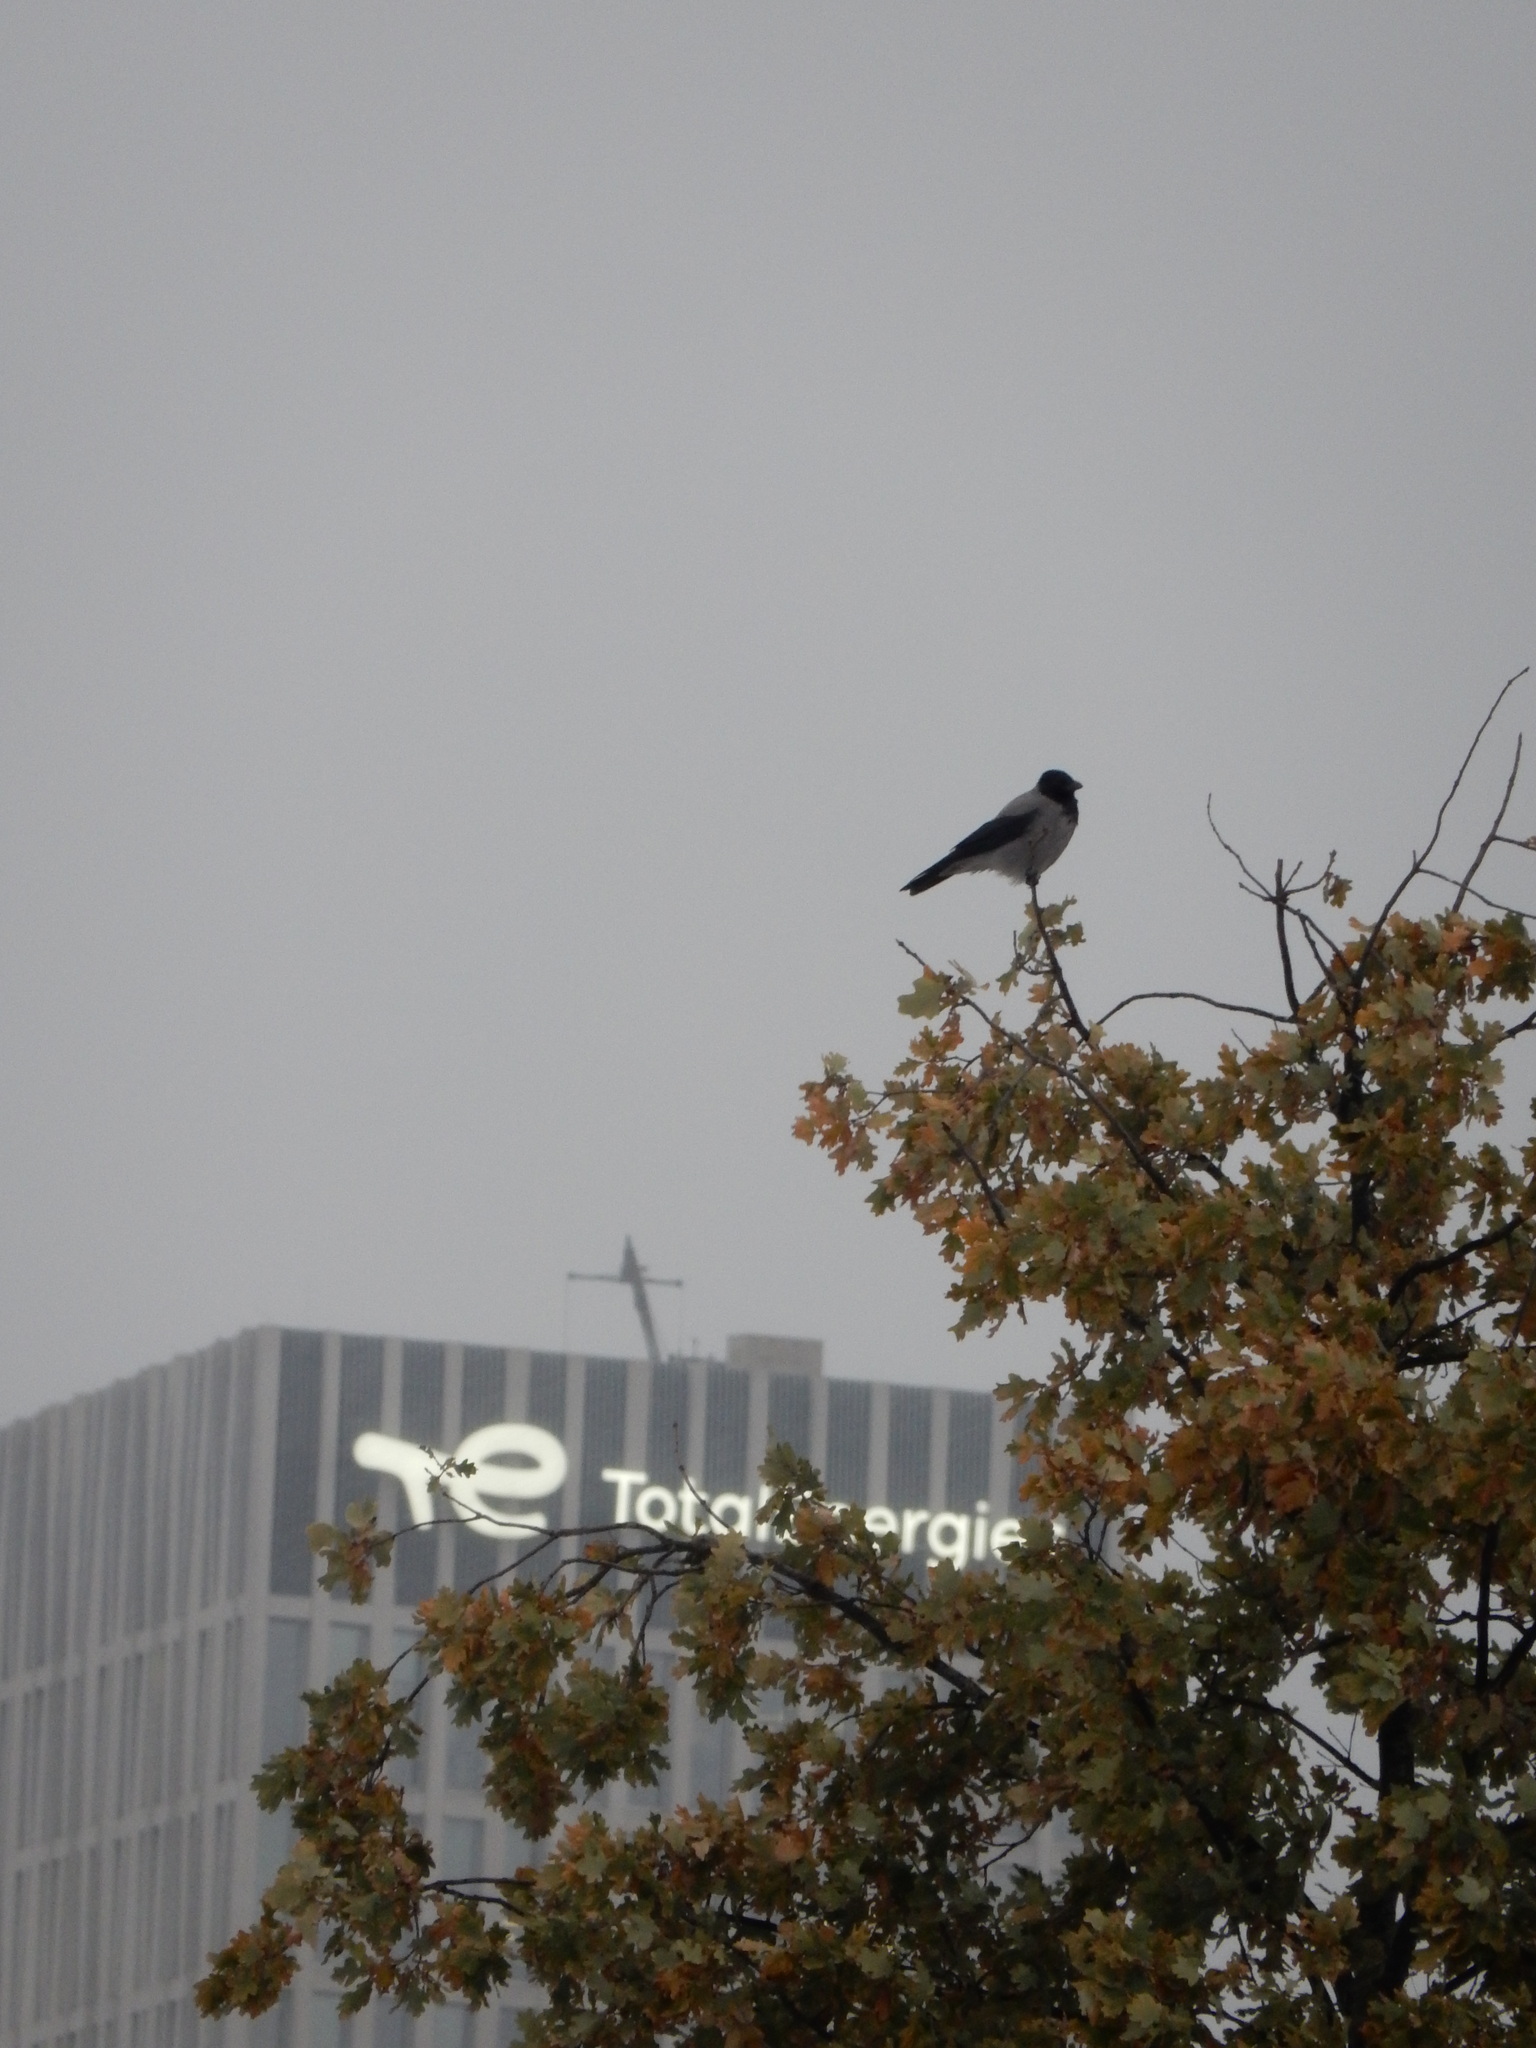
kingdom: Animalia
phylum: Chordata
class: Aves
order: Passeriformes
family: Corvidae
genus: Corvus
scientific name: Corvus cornix
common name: Hooded crow
